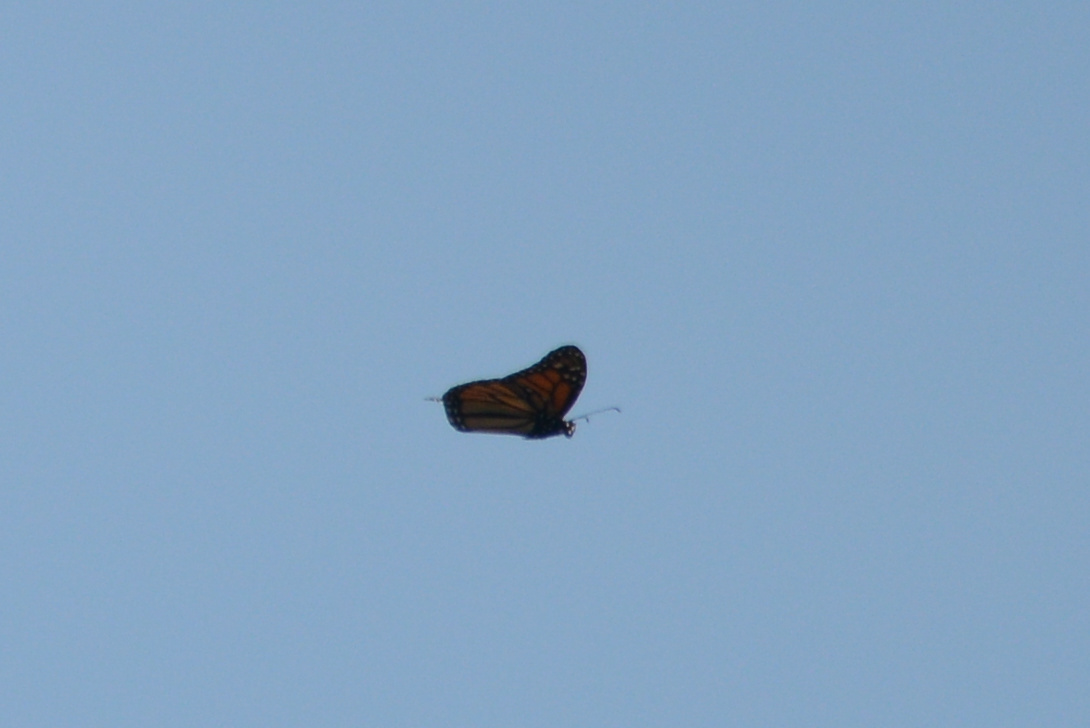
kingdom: Animalia
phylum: Arthropoda
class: Insecta
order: Lepidoptera
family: Nymphalidae
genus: Danaus
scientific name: Danaus plexippus
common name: Monarch
